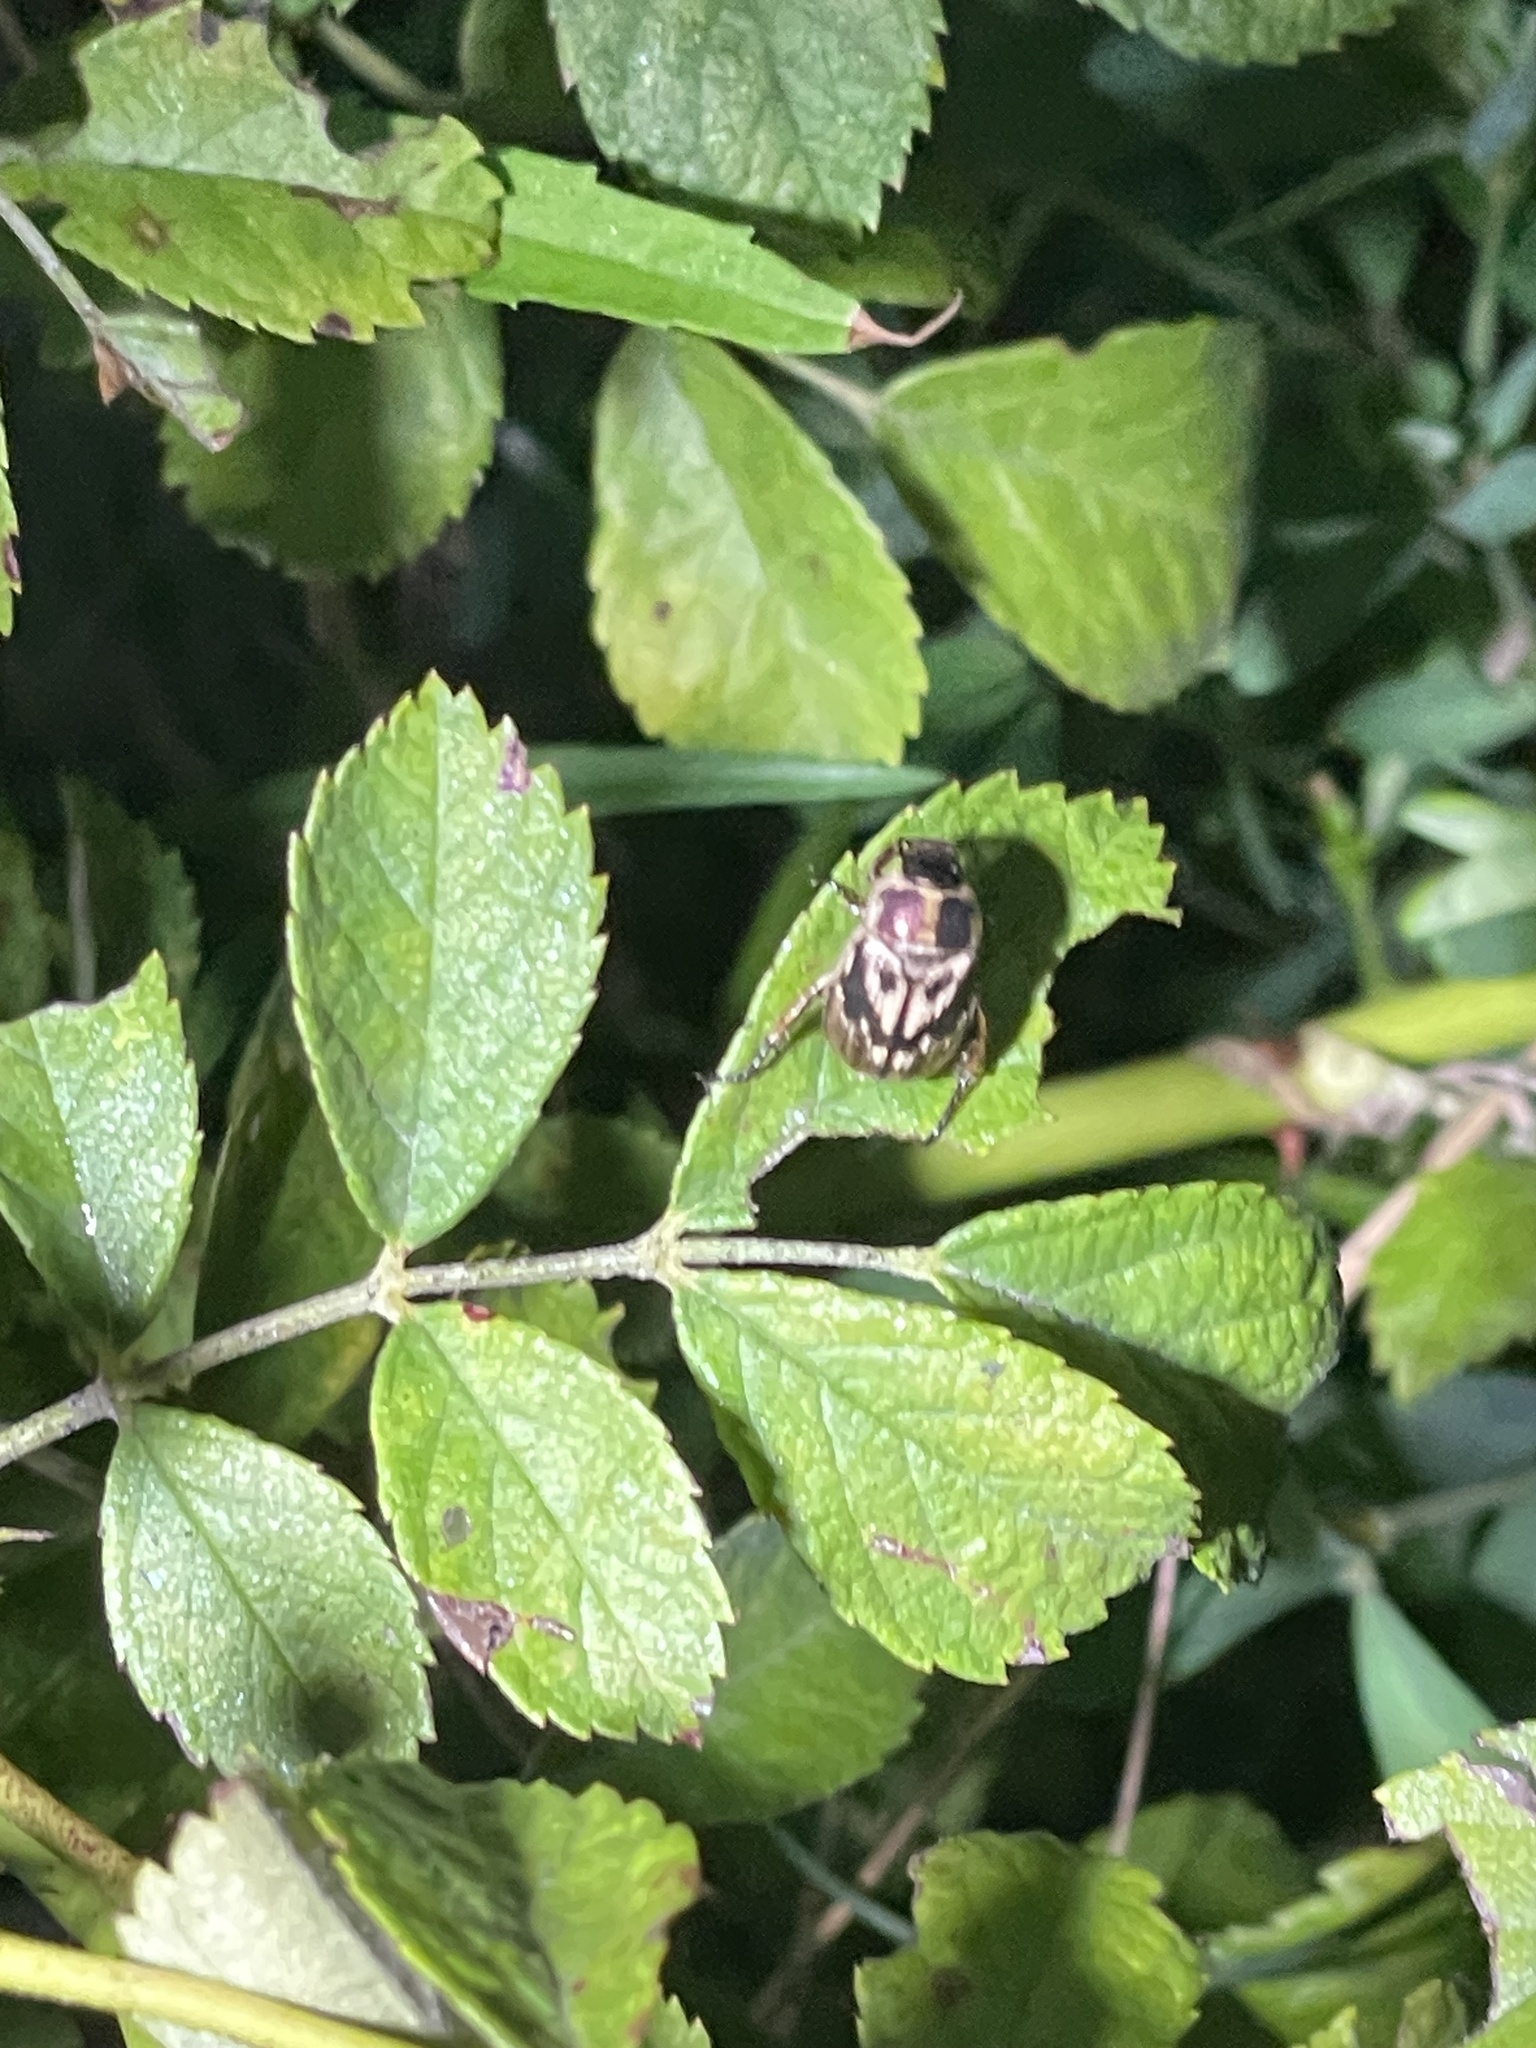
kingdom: Animalia
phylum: Arthropoda
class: Insecta
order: Coleoptera
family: Scarabaeidae
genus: Exomala
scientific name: Exomala orientalis
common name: Oriental beetle
